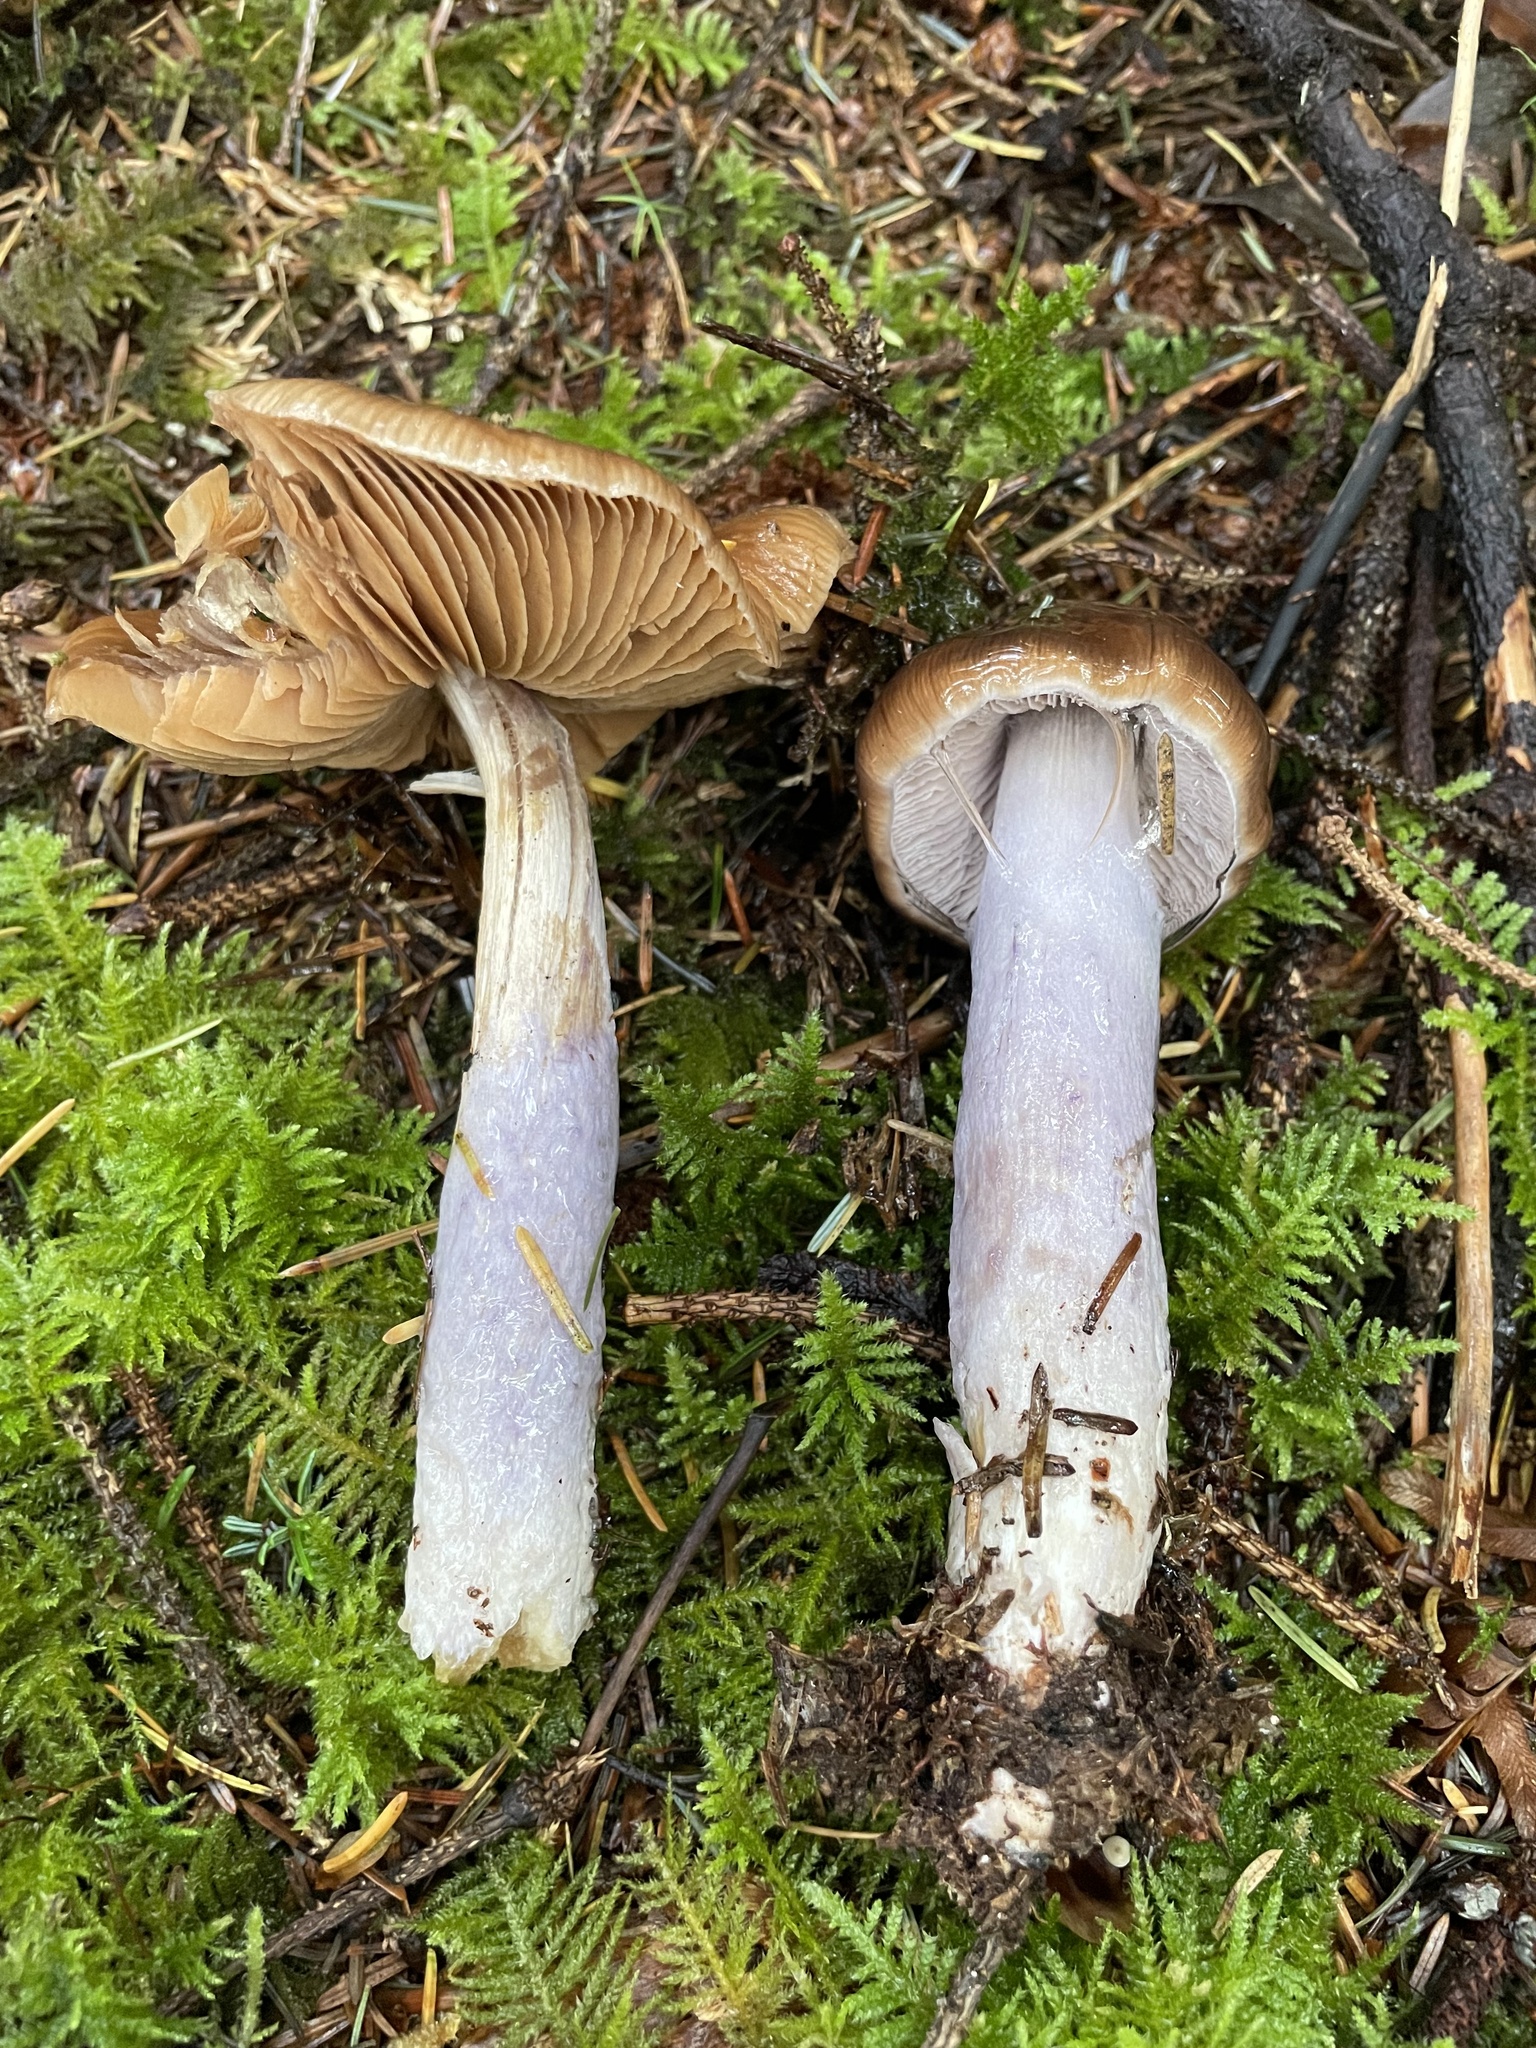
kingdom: Fungi
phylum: Basidiomycota
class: Agaricomycetes
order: Agaricales
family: Cortinariaceae
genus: Cortinarius
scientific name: Cortinarius seidliae
